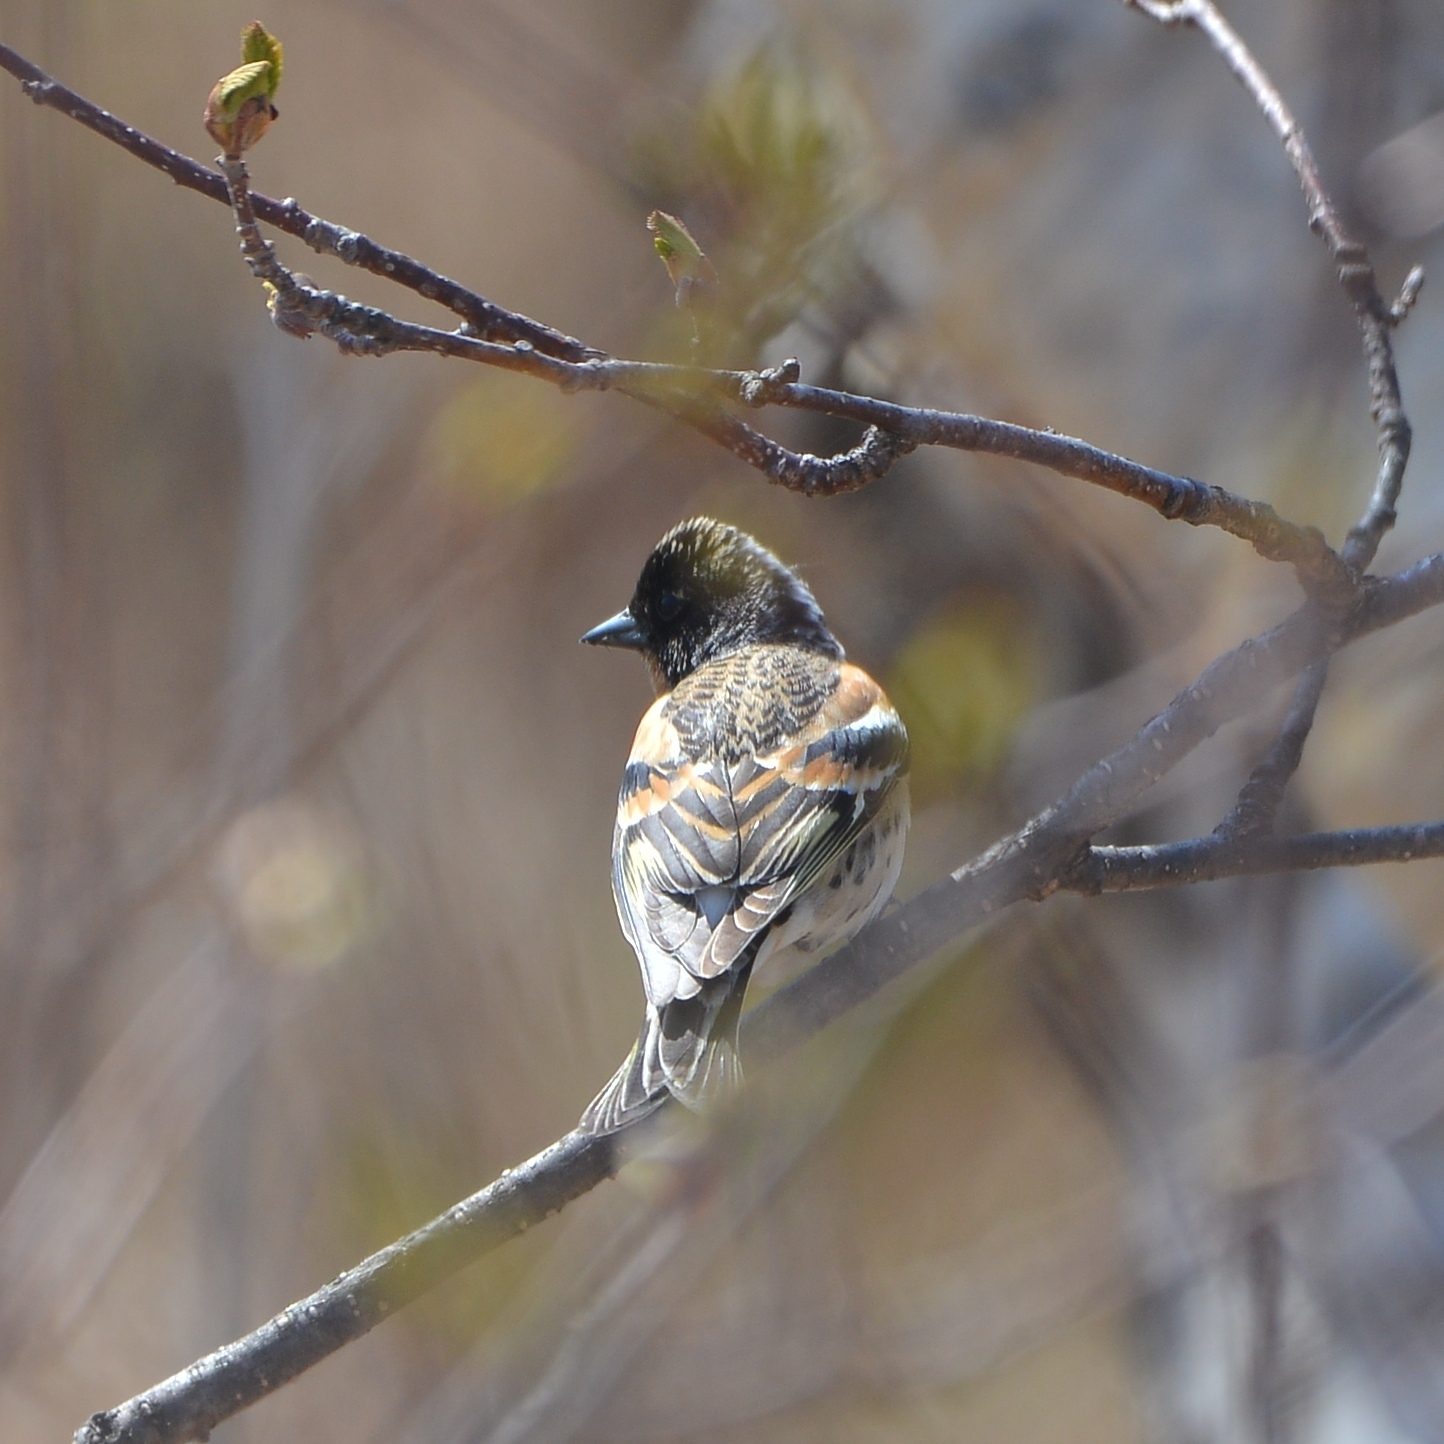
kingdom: Animalia
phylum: Chordata
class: Aves
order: Passeriformes
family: Fringillidae
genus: Fringilla
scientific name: Fringilla montifringilla
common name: Brambling
